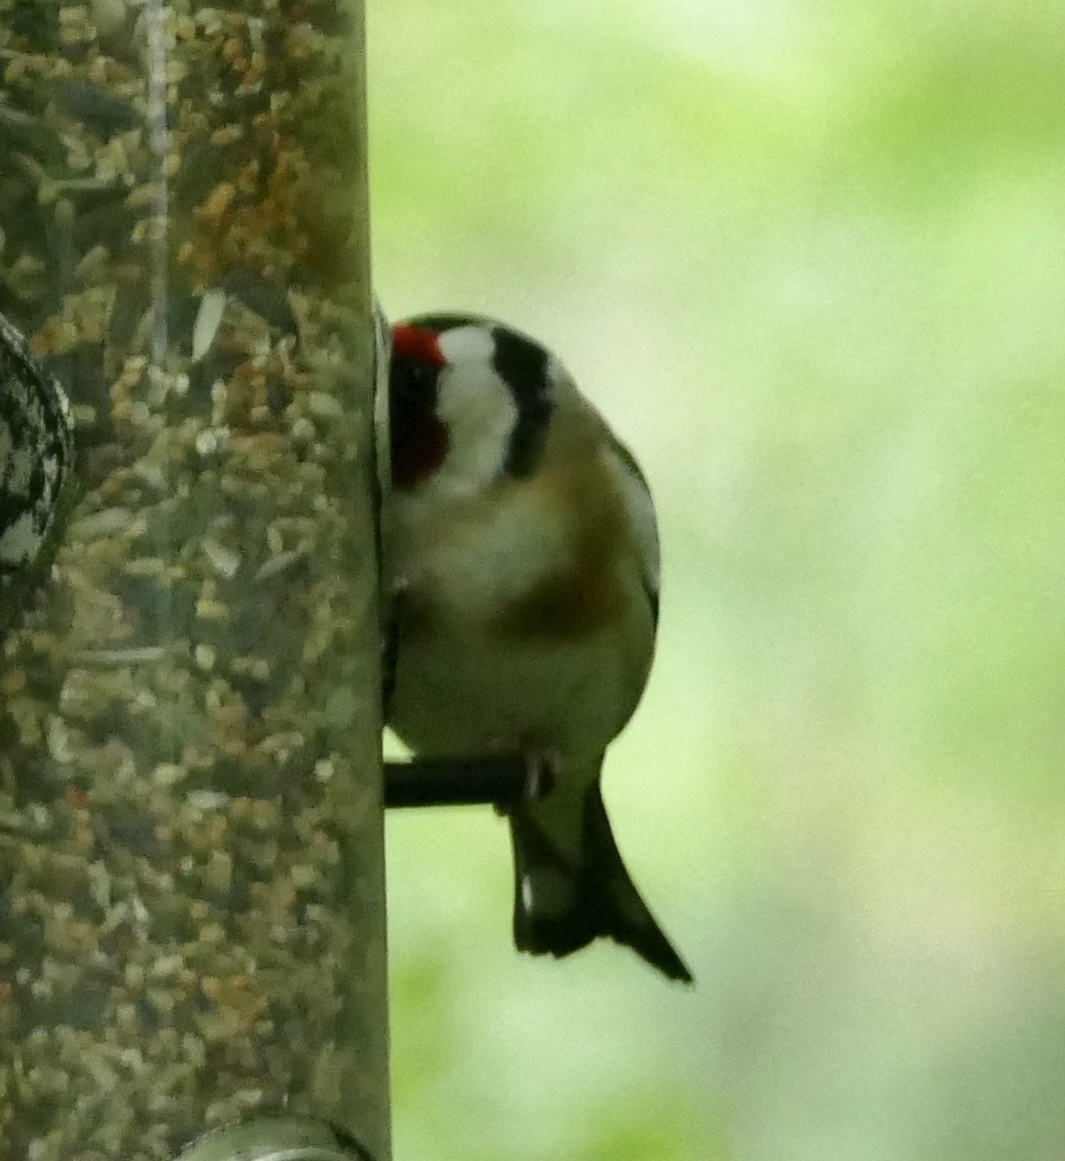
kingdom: Animalia
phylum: Chordata
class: Aves
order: Passeriformes
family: Fringillidae
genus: Carduelis
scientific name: Carduelis carduelis
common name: European goldfinch
